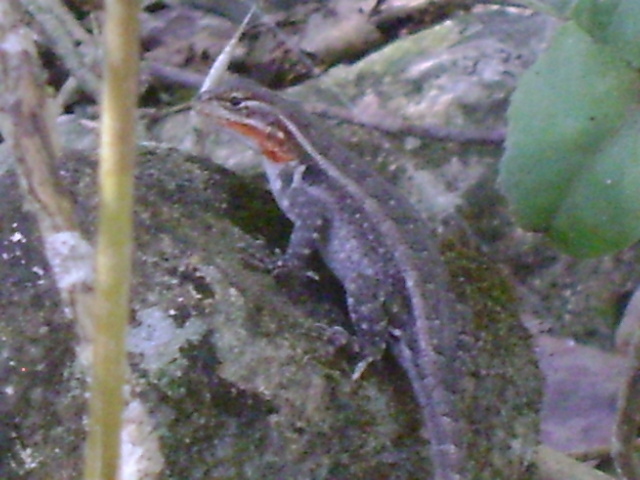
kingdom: Animalia
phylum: Chordata
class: Squamata
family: Phrynosomatidae
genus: Sceloporus
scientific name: Sceloporus variabilis
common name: Rosebelly lizard
